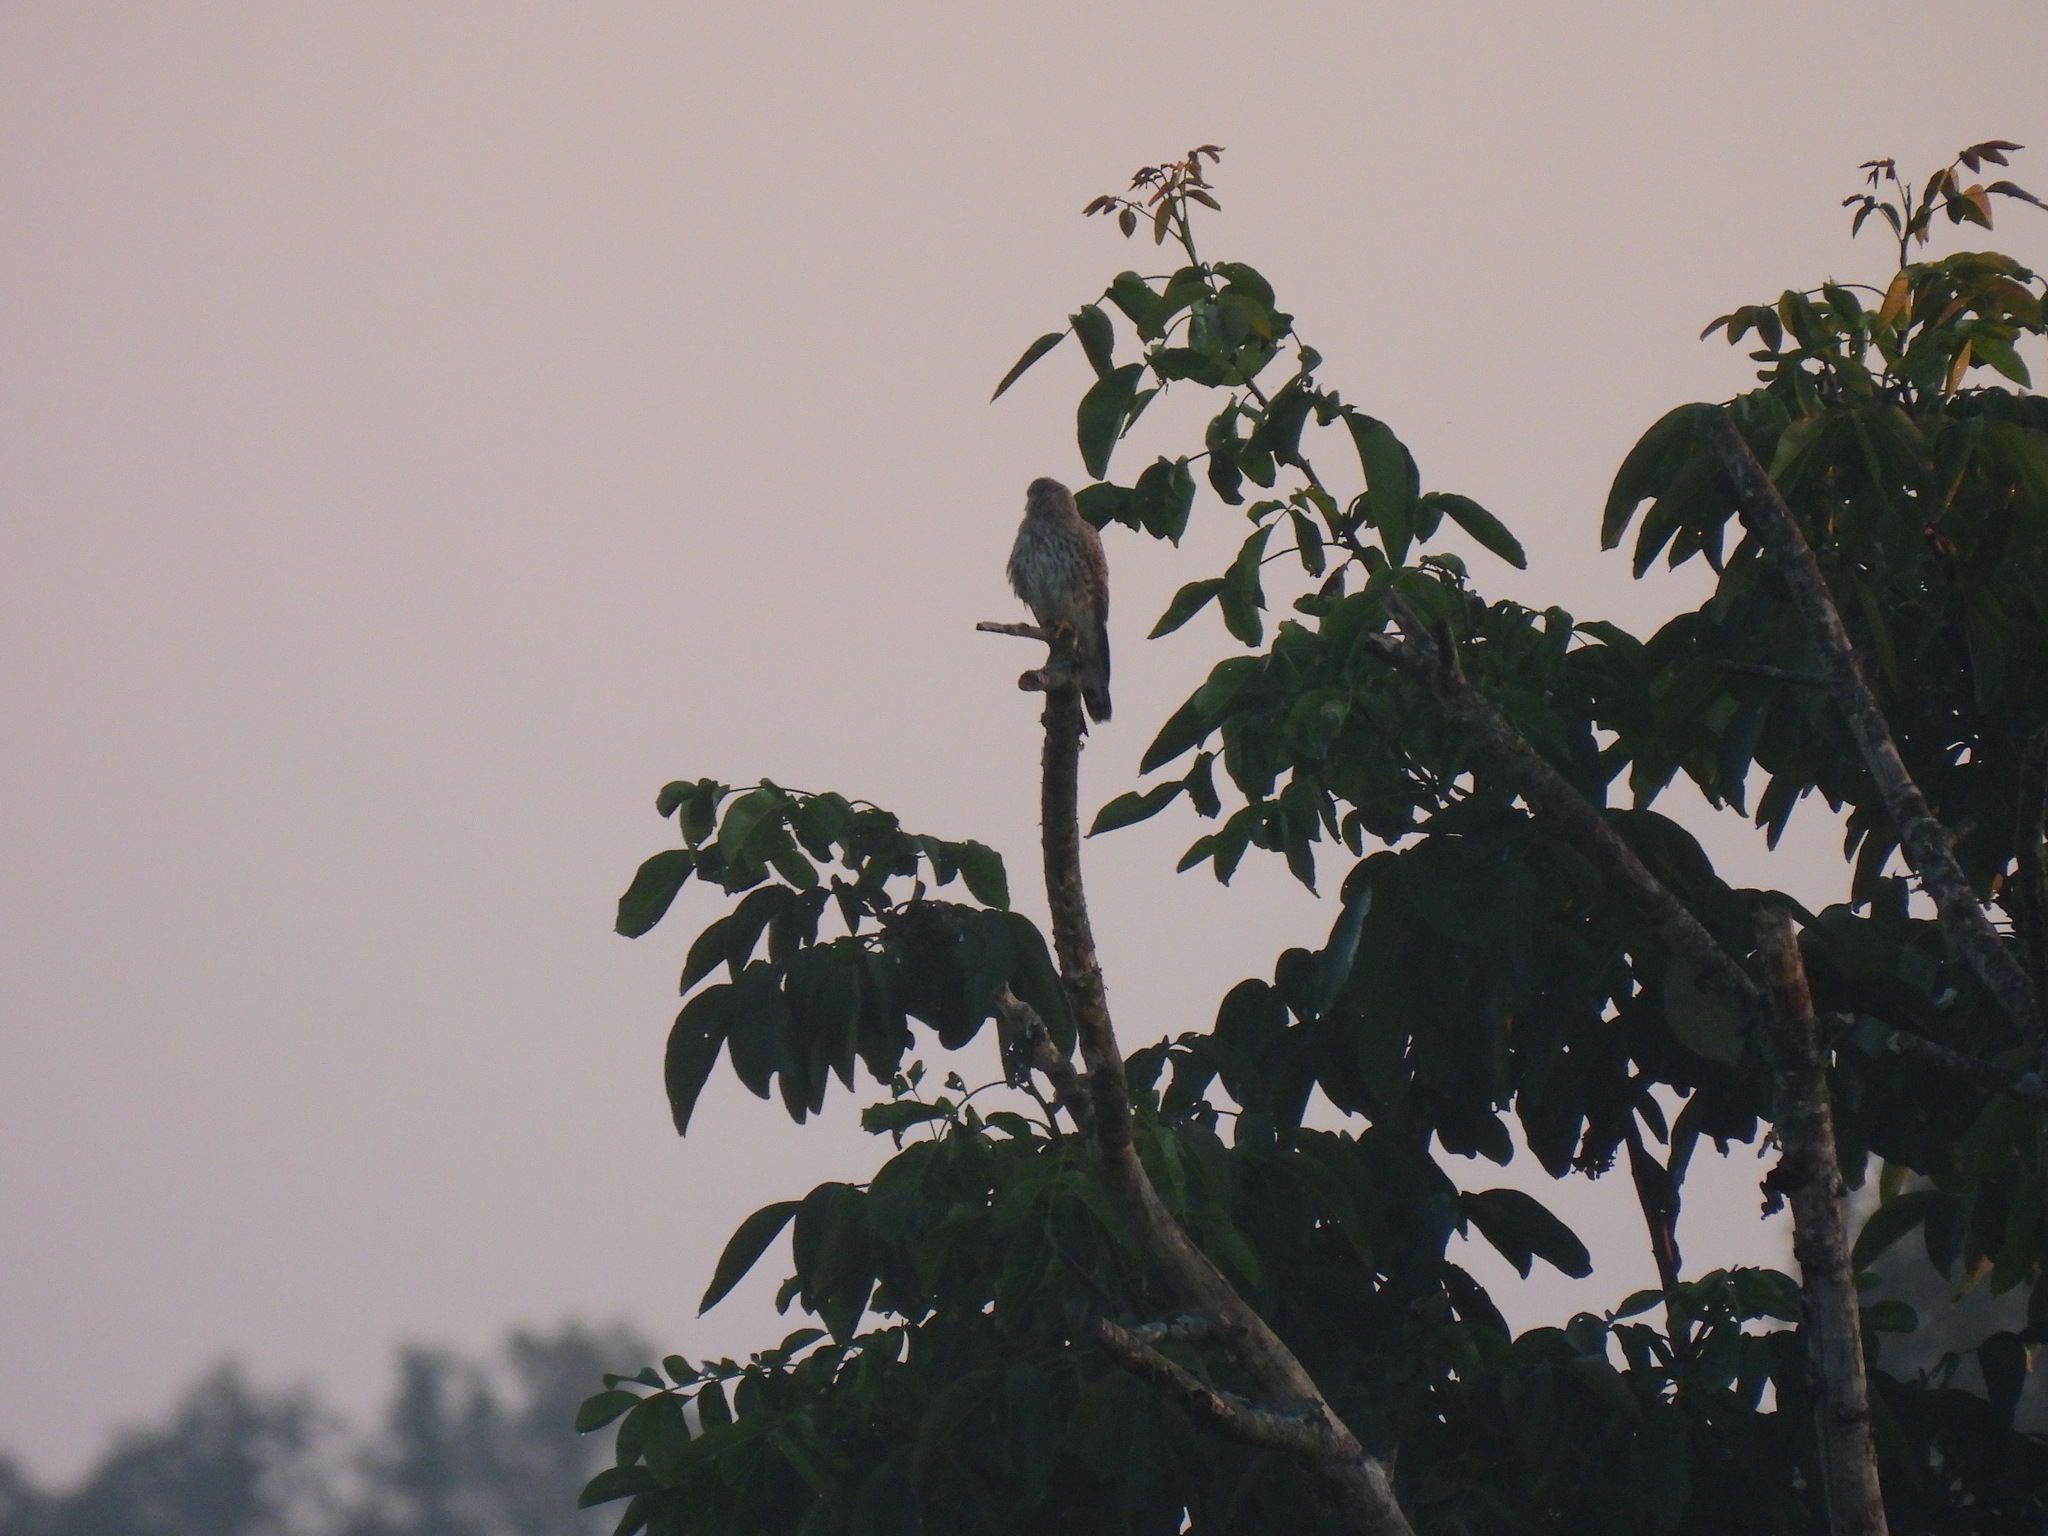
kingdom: Animalia
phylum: Chordata
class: Aves
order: Falconiformes
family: Falconidae
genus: Falco
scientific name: Falco tinnunculus
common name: Common kestrel
